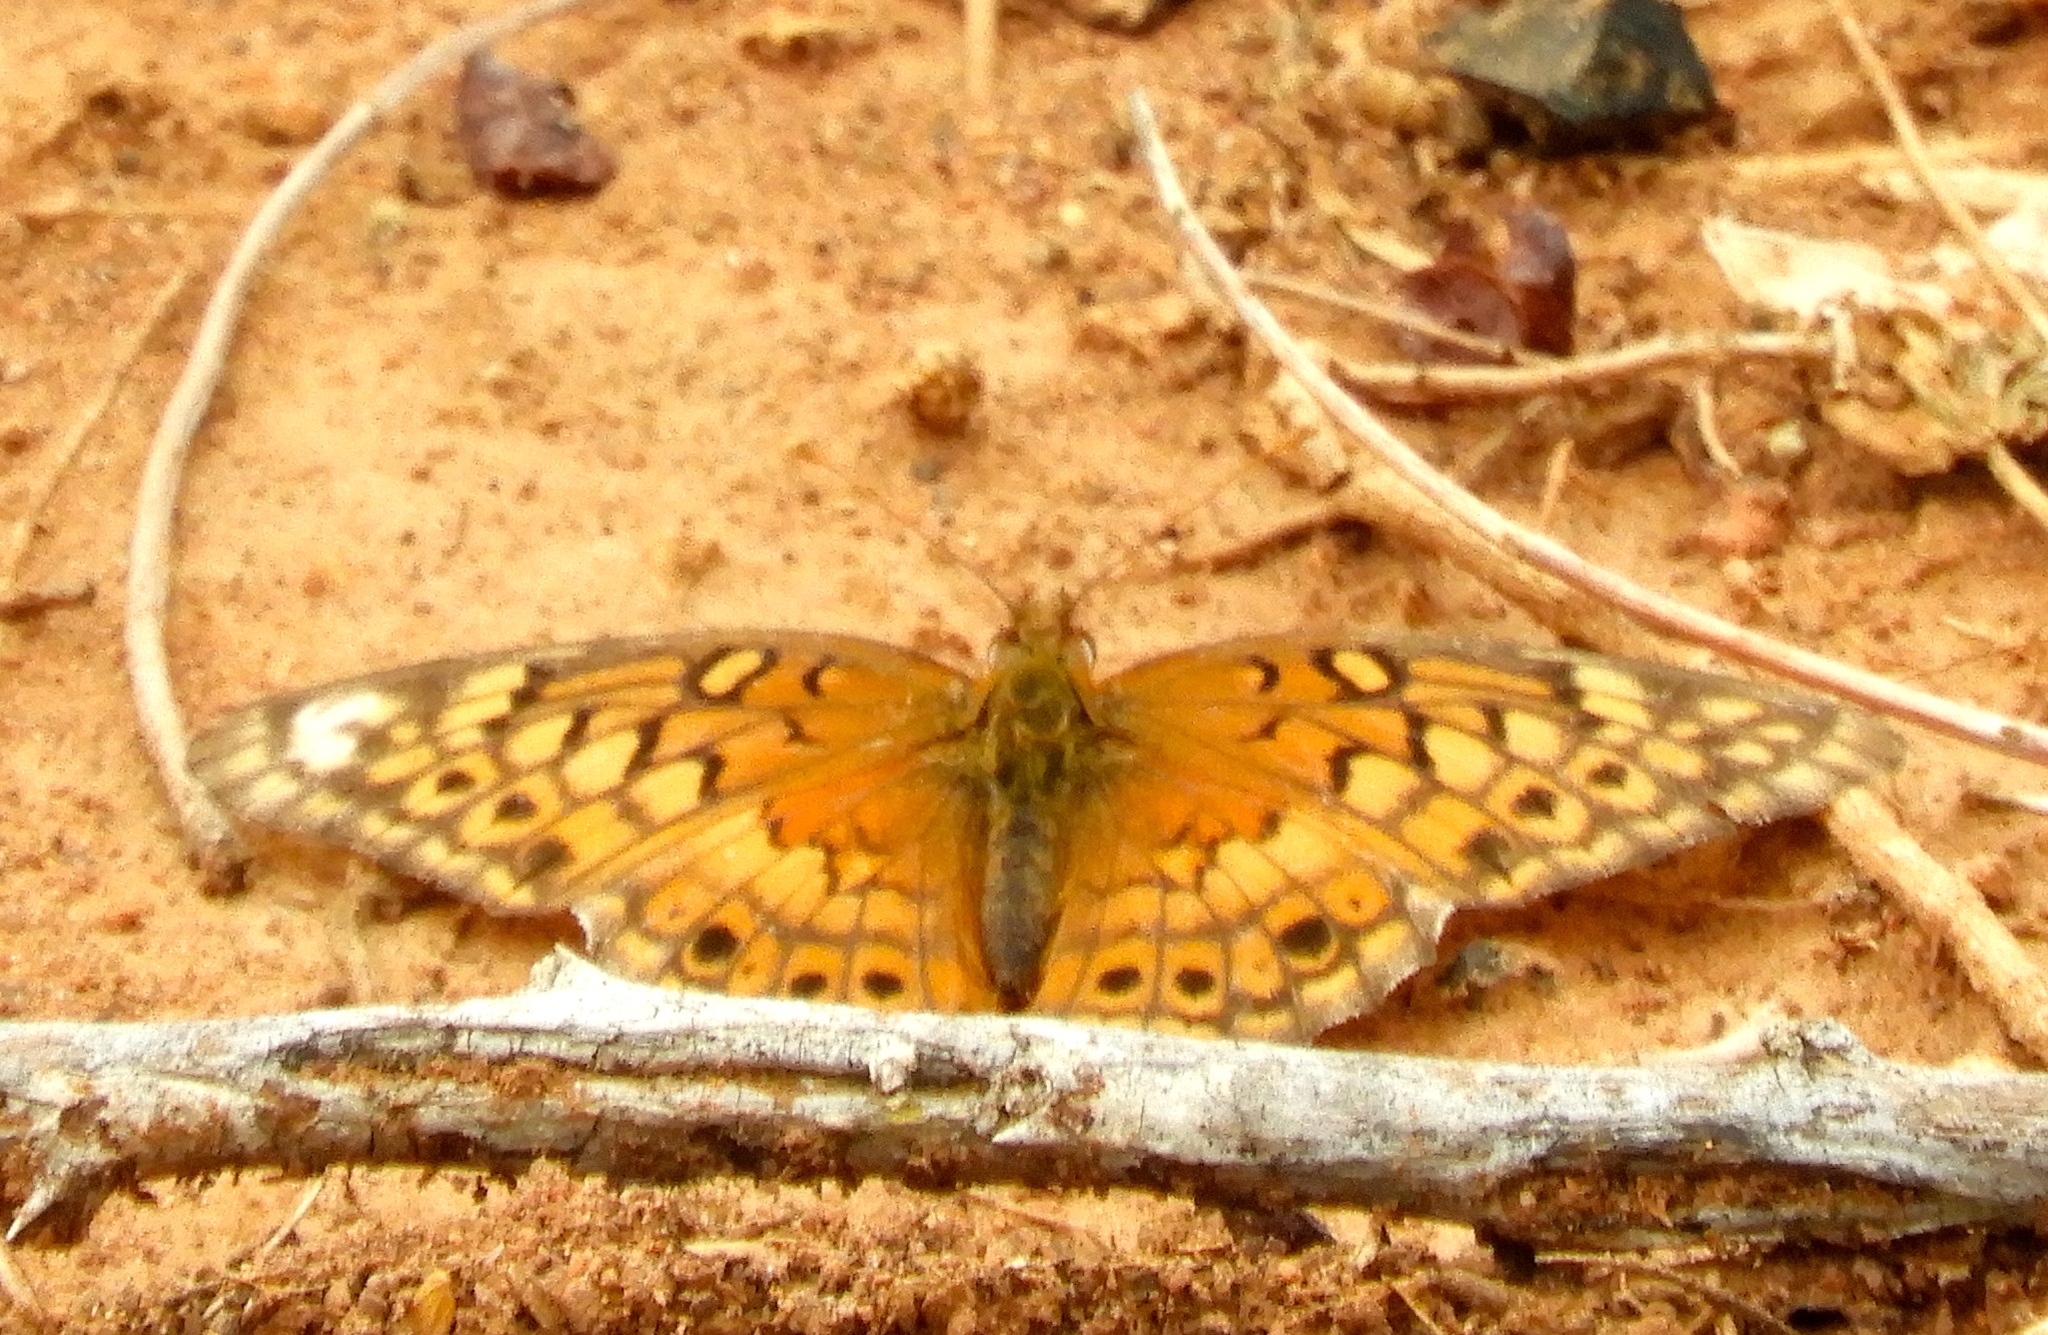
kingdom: Animalia
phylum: Arthropoda
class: Insecta
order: Lepidoptera
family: Nymphalidae
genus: Euptoieta
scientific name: Euptoieta claudia
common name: Variegated fritillary
